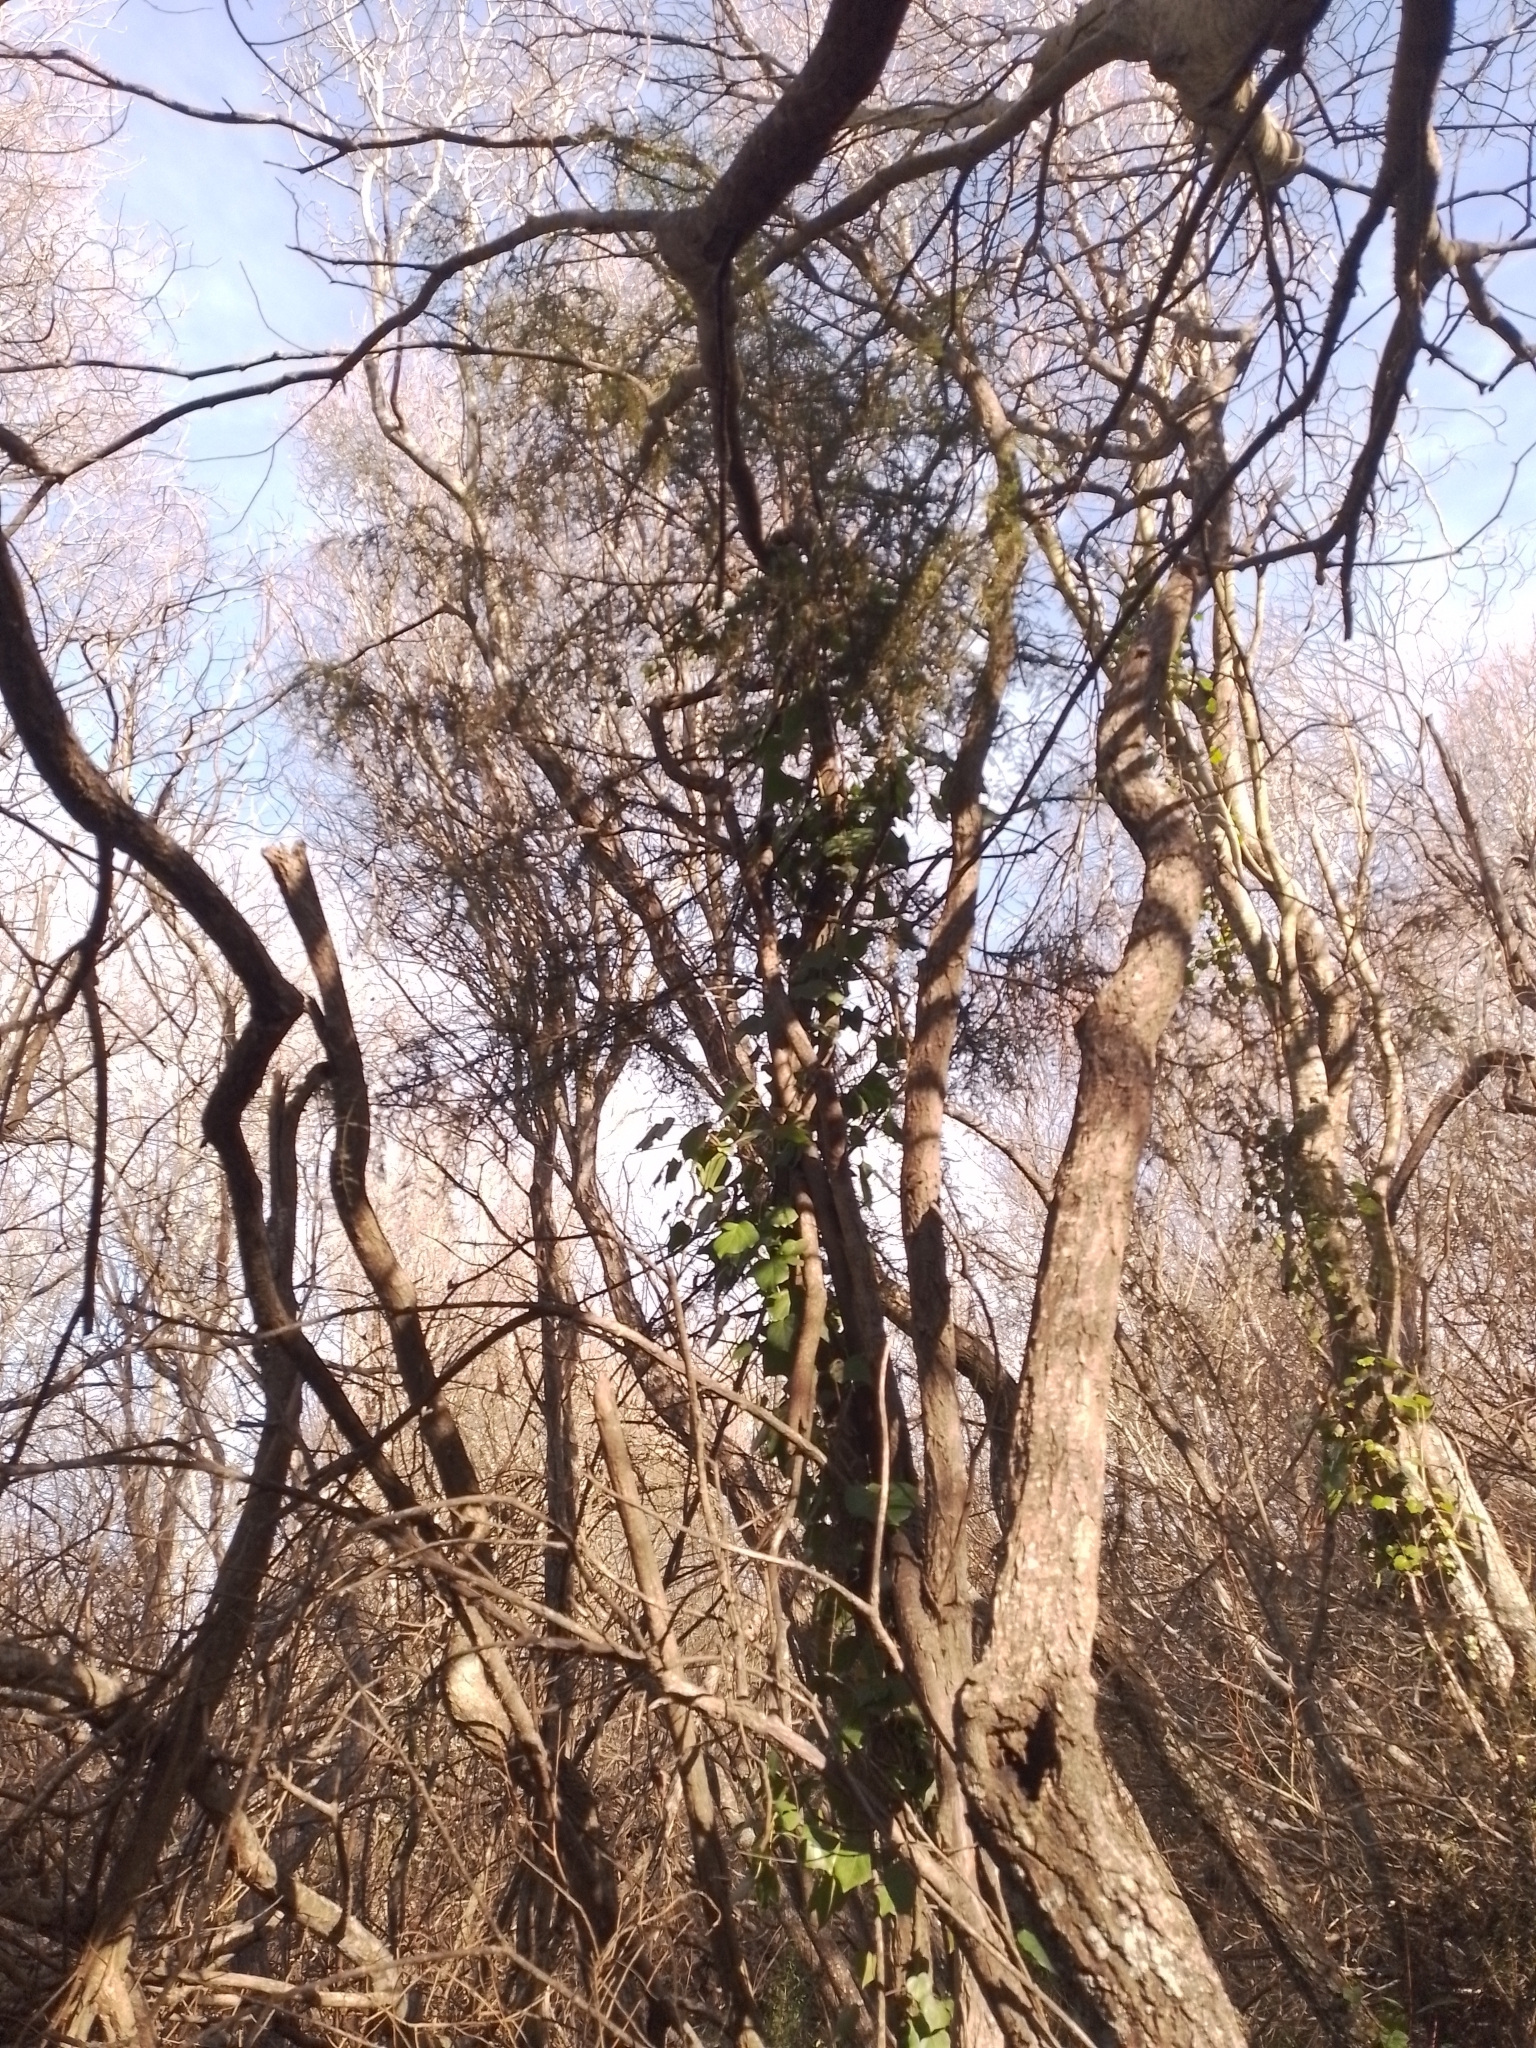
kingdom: Plantae
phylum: Tracheophyta
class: Pinopsida
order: Pinales
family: Podocarpaceae
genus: Dacrycarpus
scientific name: Dacrycarpus dacrydioides
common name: White pine
